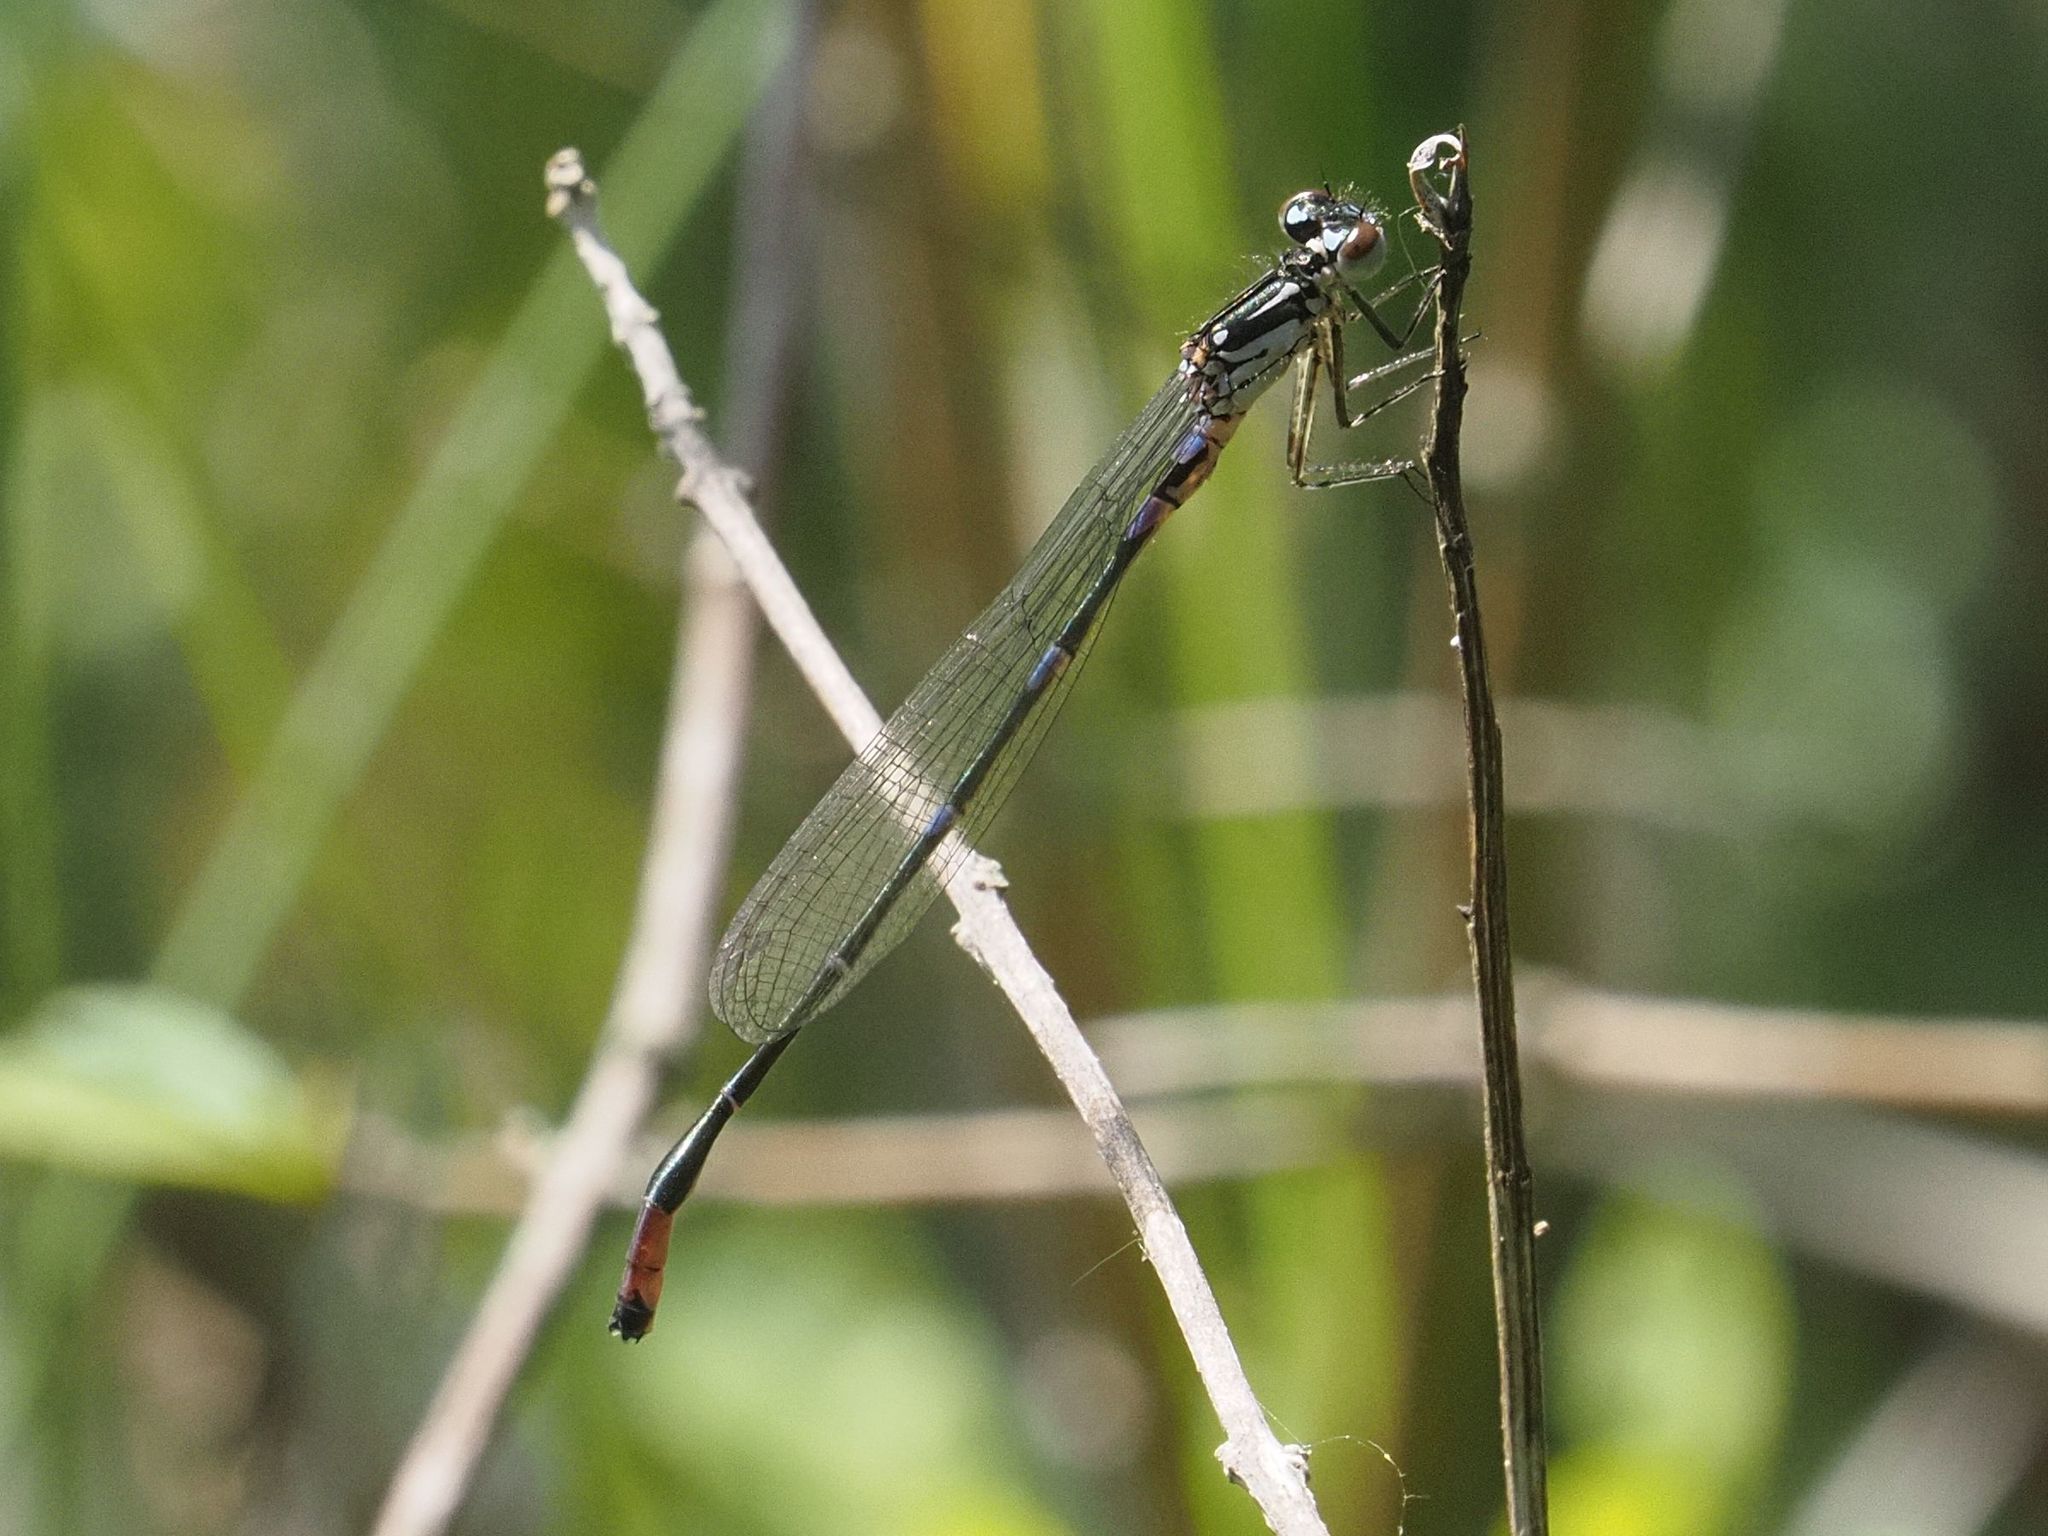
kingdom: Animalia
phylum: Arthropoda
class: Insecta
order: Odonata
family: Coenagrionidae
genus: Coenagrion
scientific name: Coenagrion pulchellum
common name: Variable bluet
